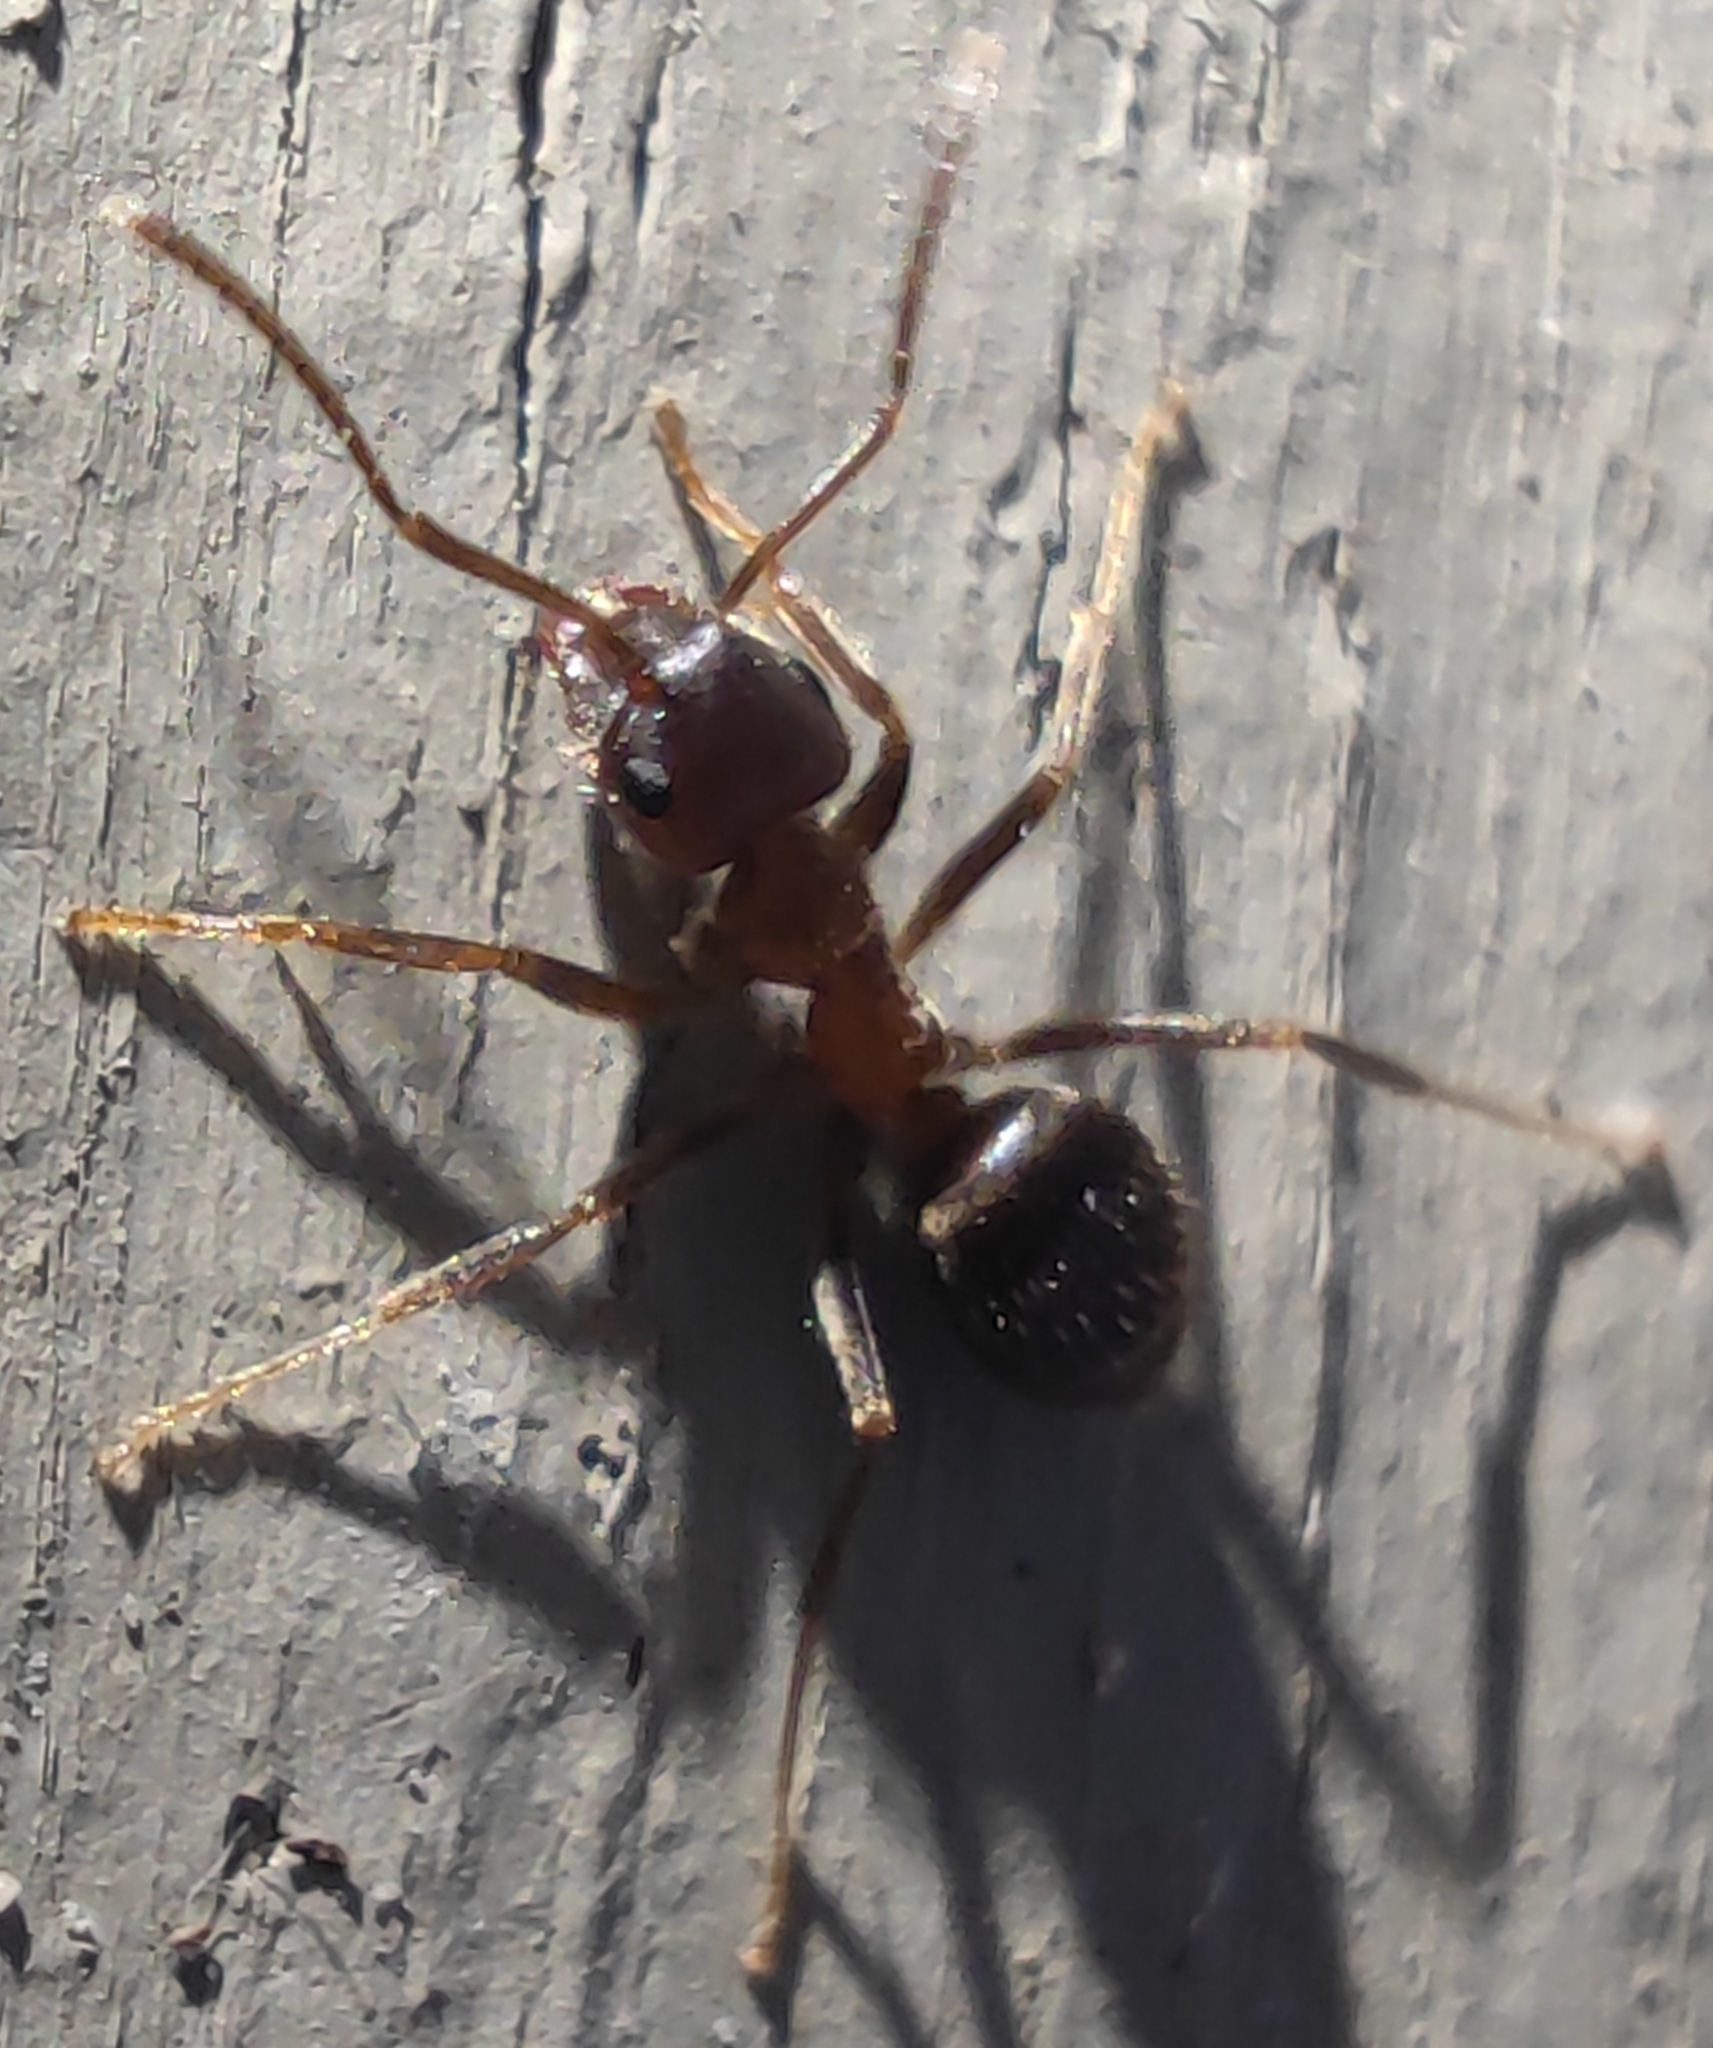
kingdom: Animalia
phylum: Arthropoda
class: Insecta
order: Hymenoptera
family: Formicidae
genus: Lasius
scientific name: Lasius emarginatus
